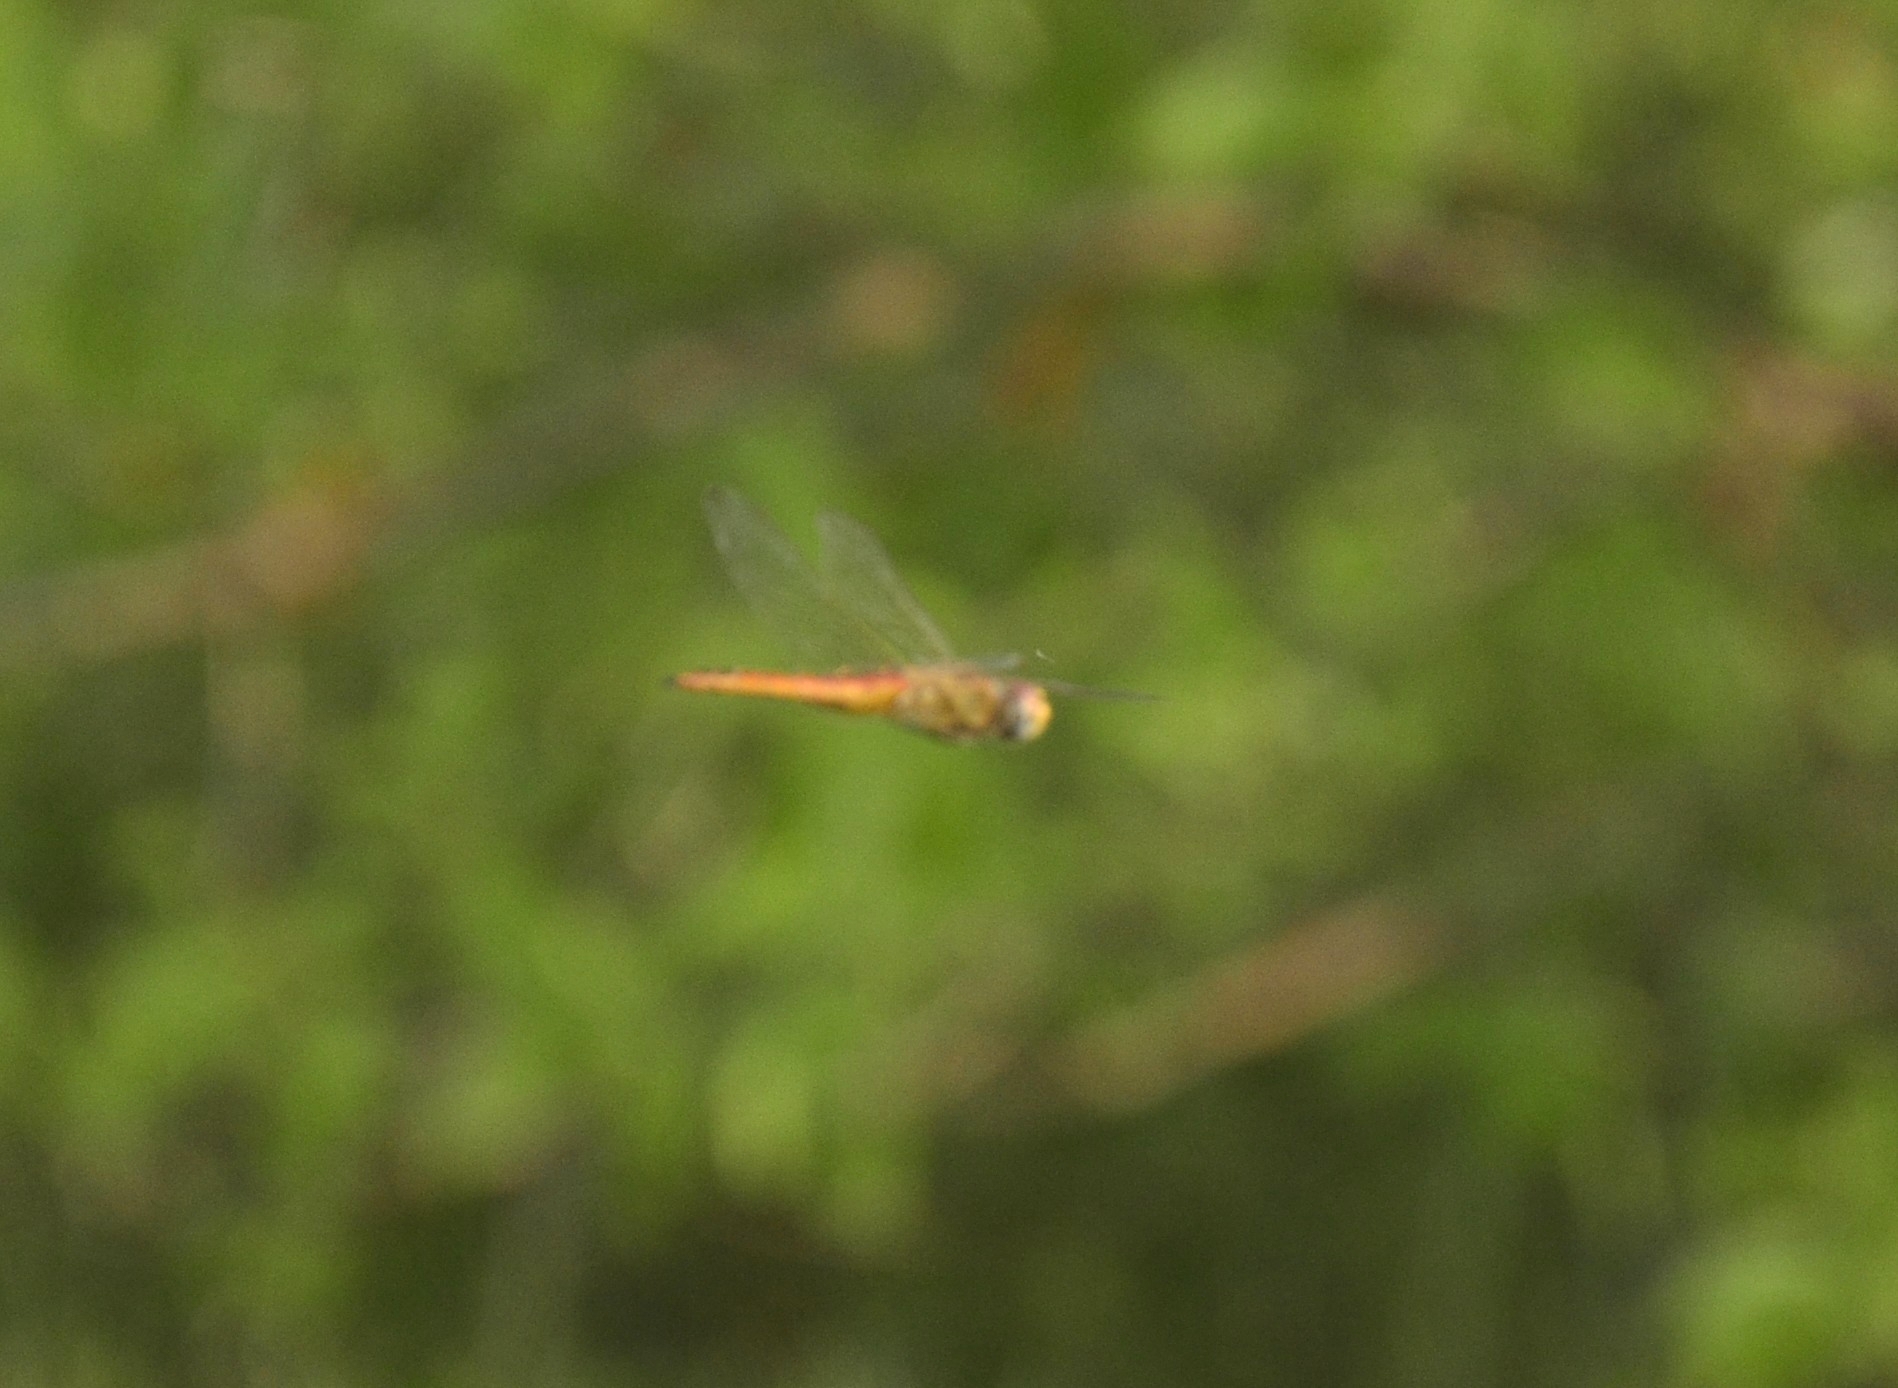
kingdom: Animalia
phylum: Arthropoda
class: Insecta
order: Odonata
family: Libellulidae
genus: Pantala
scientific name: Pantala flavescens
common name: Wandering glider
